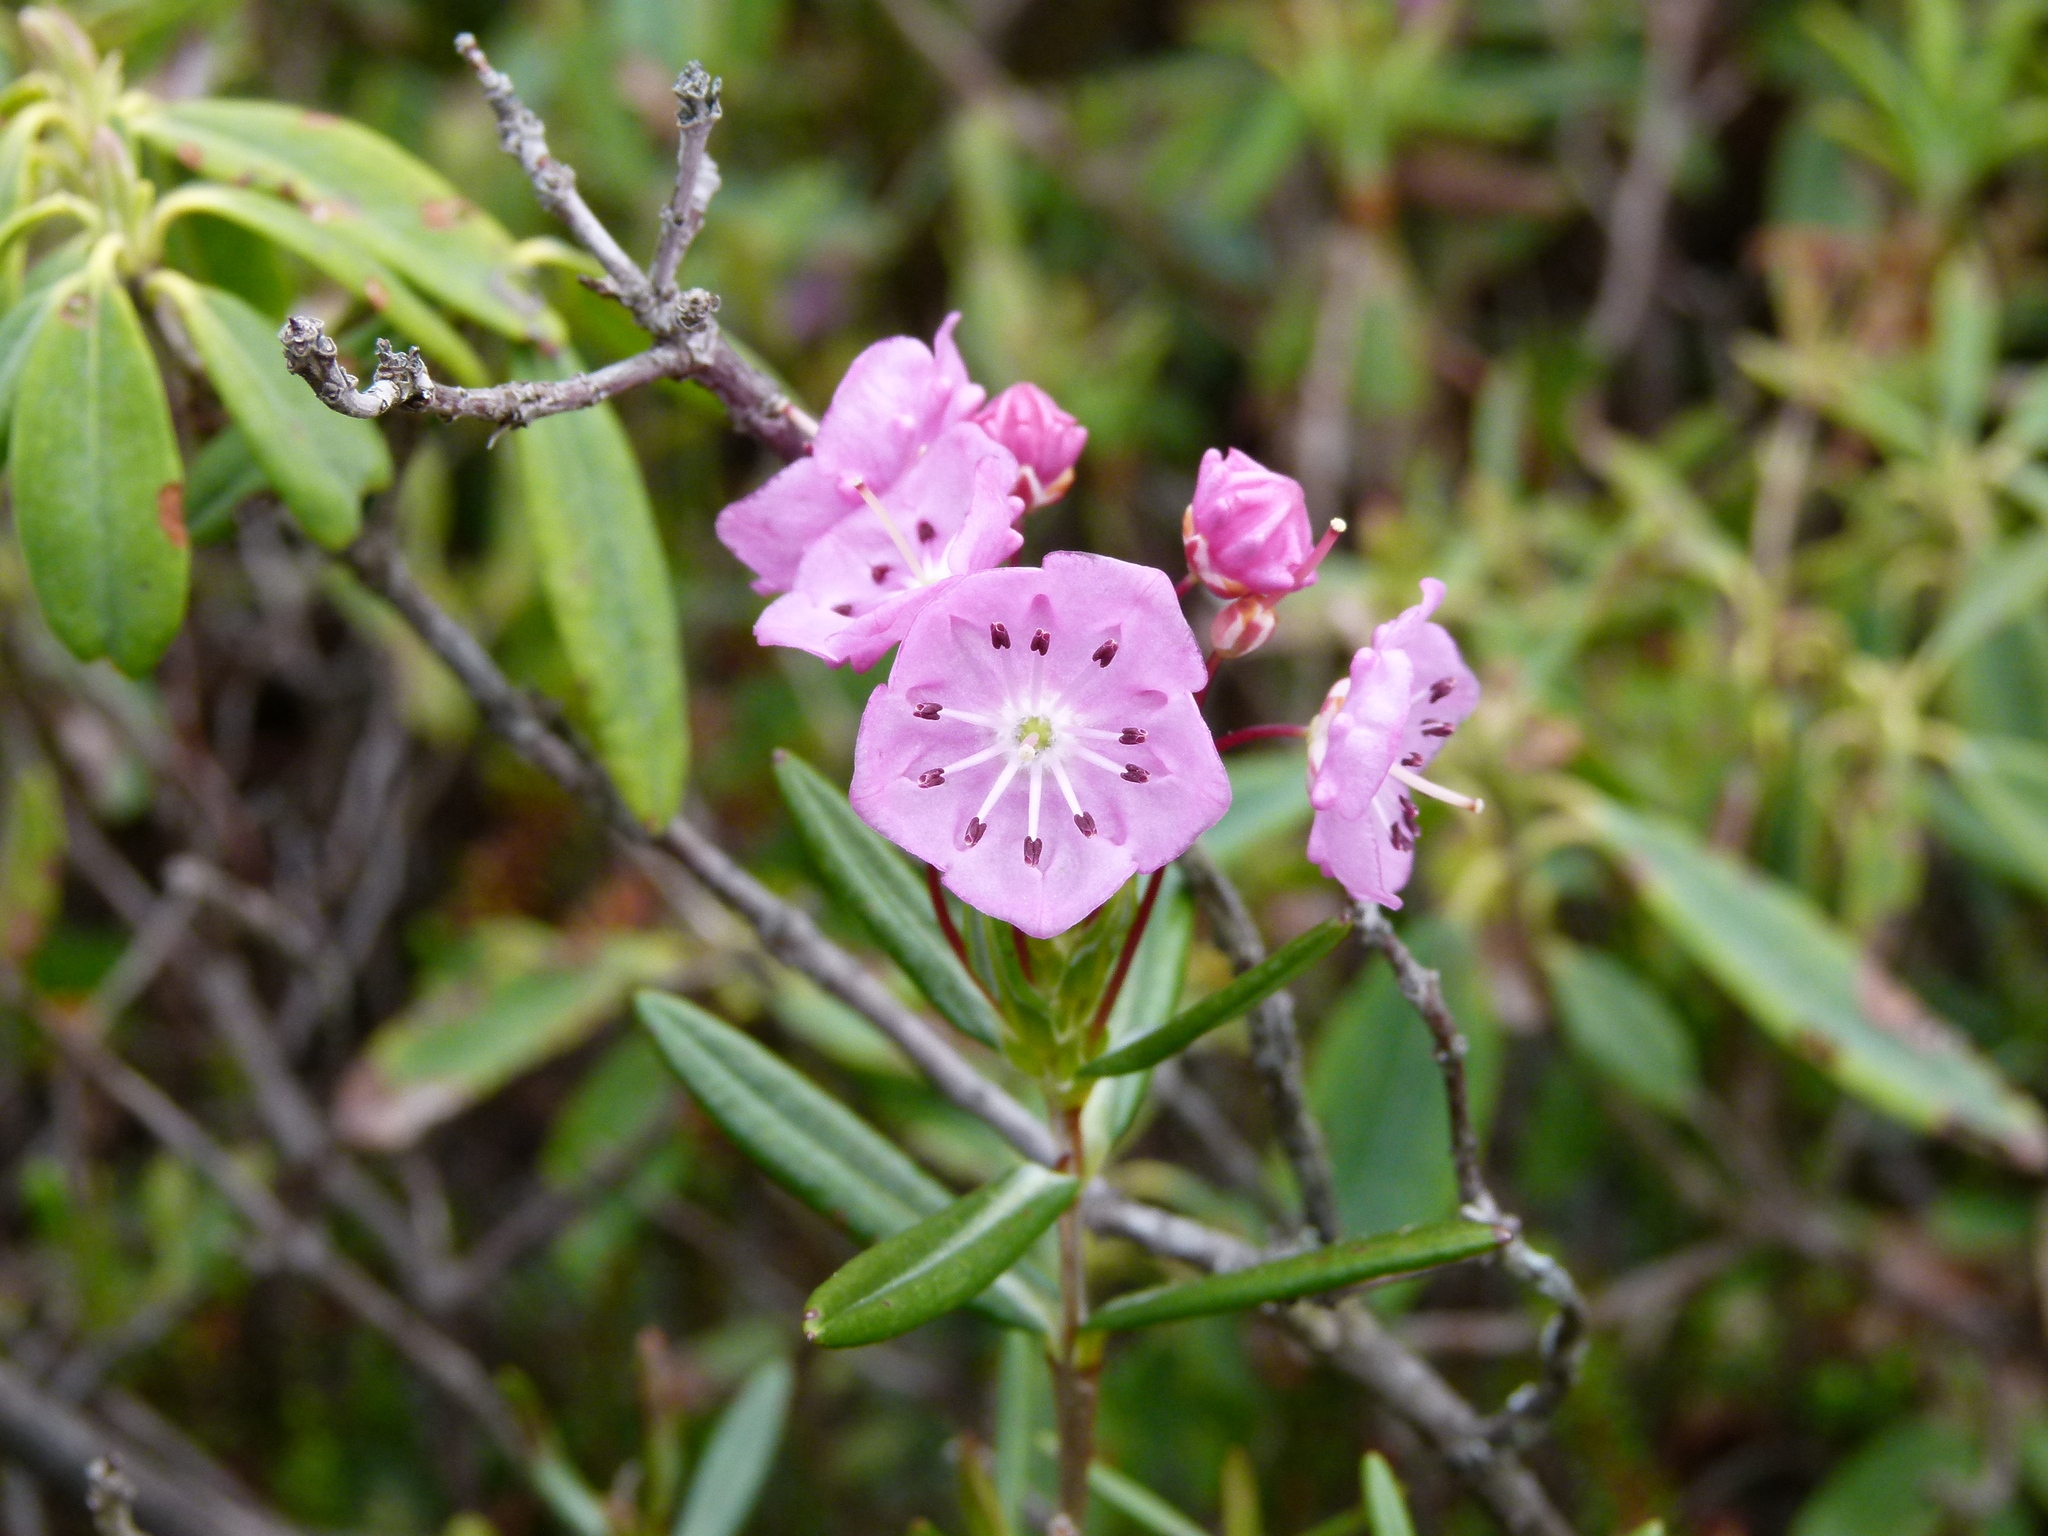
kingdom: Plantae
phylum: Tracheophyta
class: Magnoliopsida
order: Ericales
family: Ericaceae
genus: Kalmia
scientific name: Kalmia polifolia
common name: Bog-laurel
